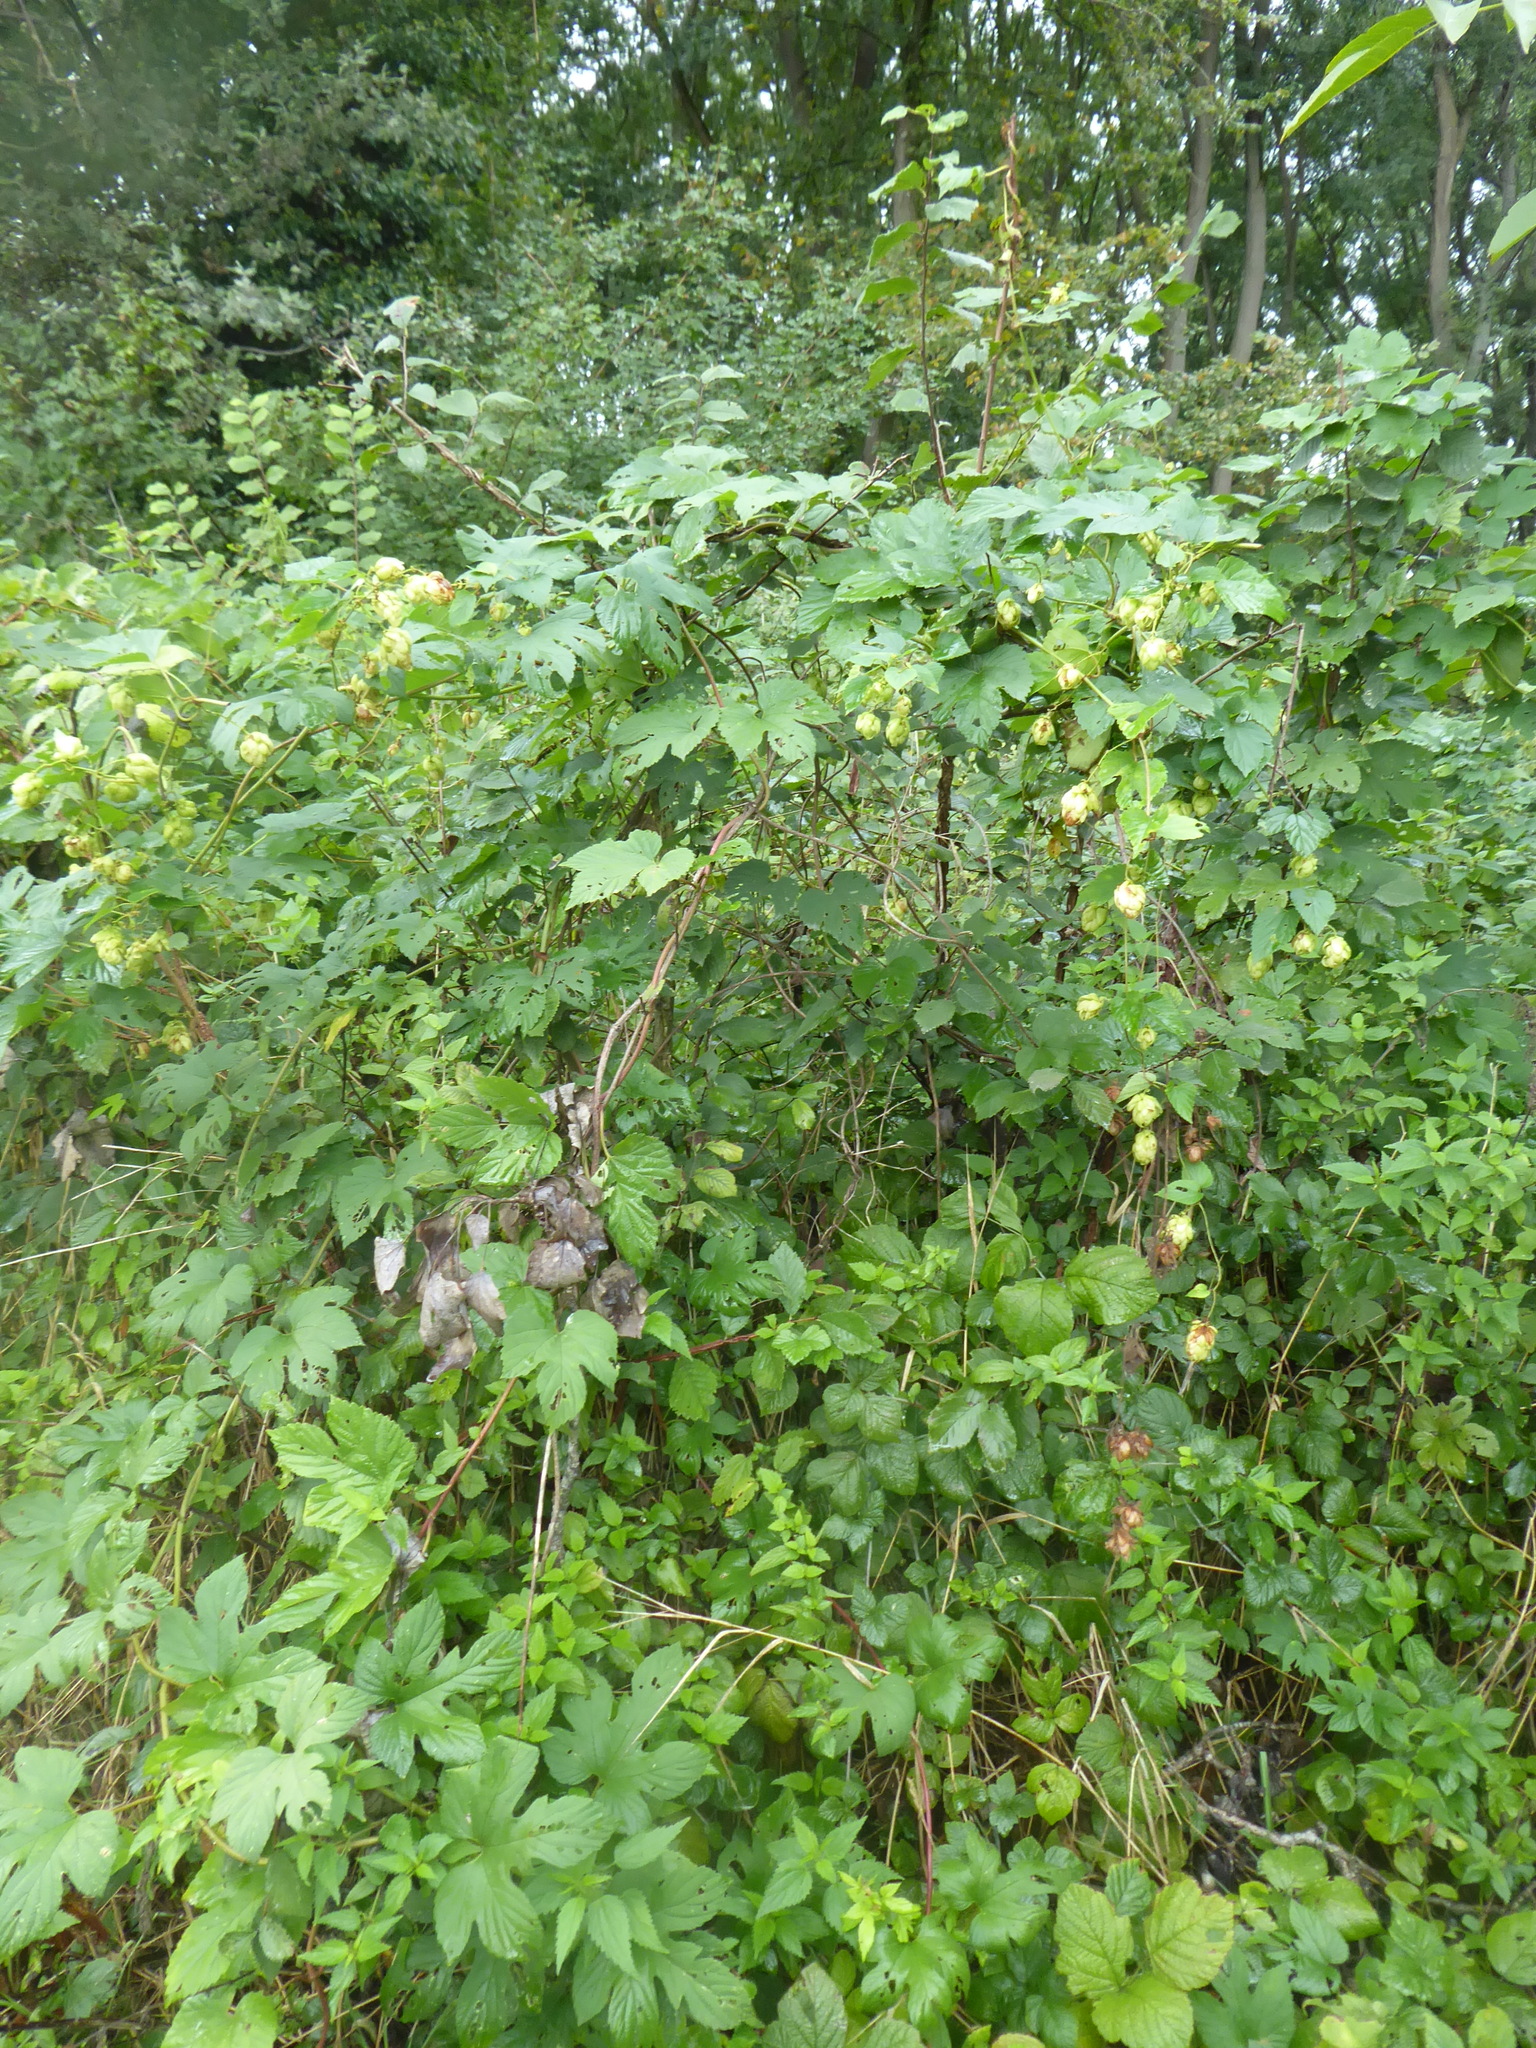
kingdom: Plantae
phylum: Tracheophyta
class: Magnoliopsida
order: Rosales
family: Cannabaceae
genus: Humulus
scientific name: Humulus lupulus
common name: Hop
